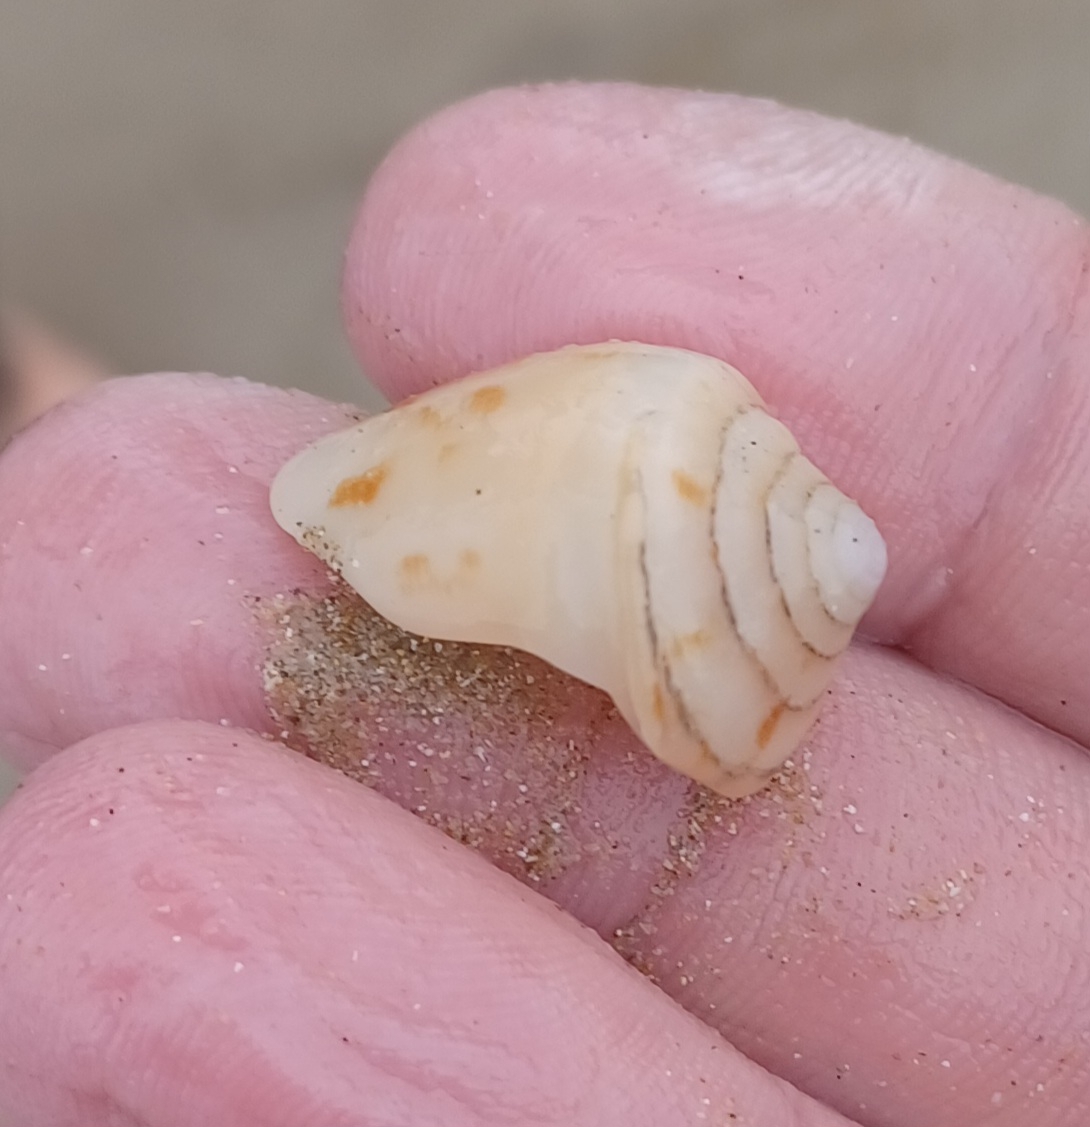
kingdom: Animalia
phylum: Mollusca
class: Gastropoda
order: Neogastropoda
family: Conidae
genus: Conus
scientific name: Conus anemone
